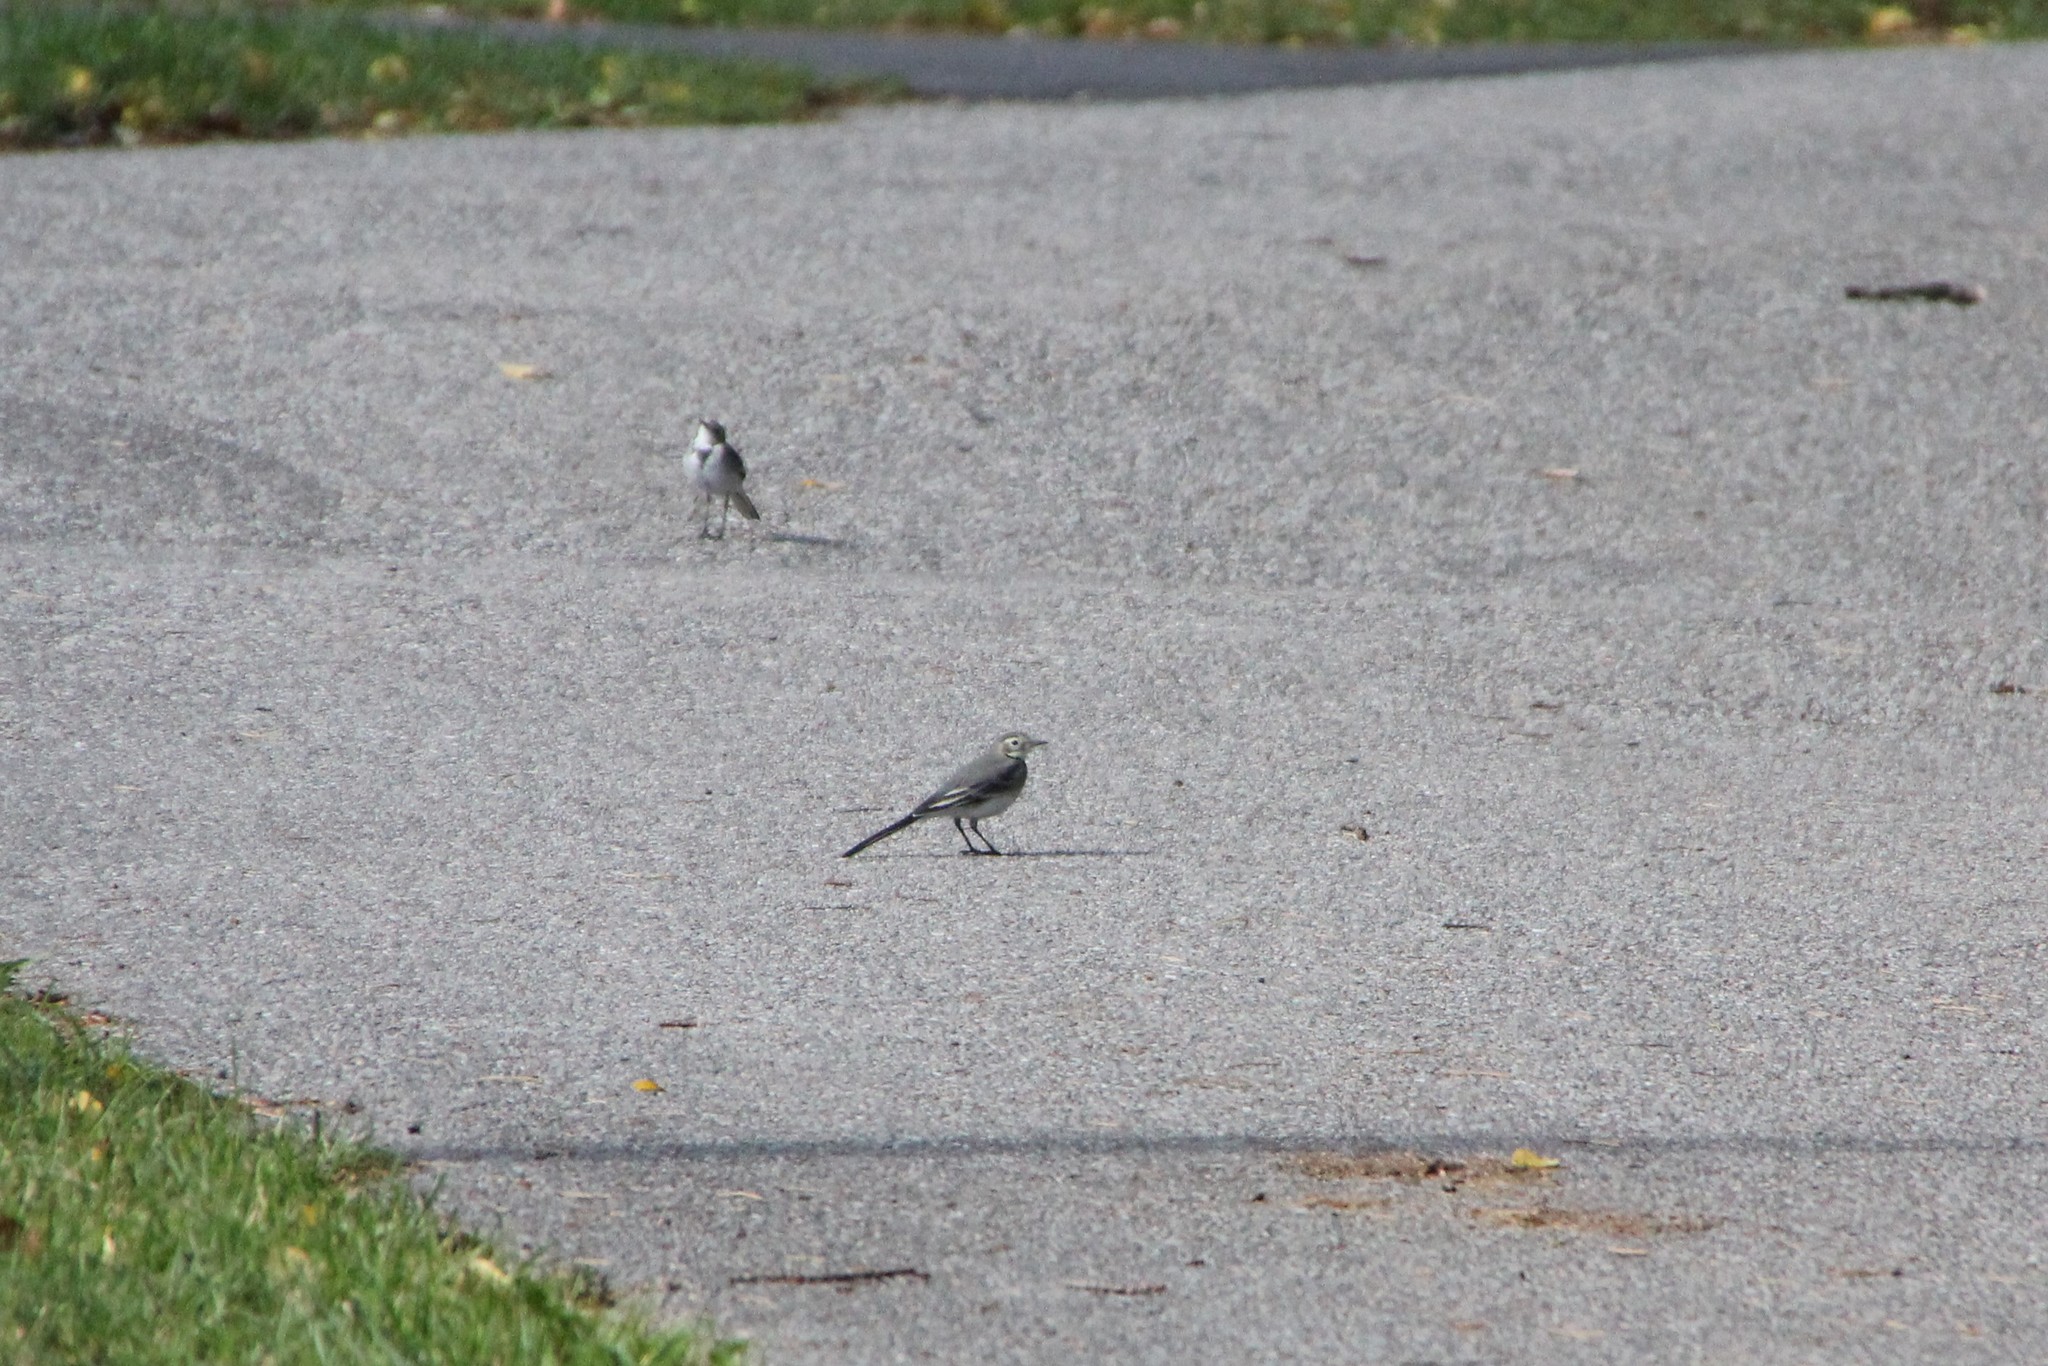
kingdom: Animalia
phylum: Chordata
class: Aves
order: Passeriformes
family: Motacillidae
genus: Motacilla
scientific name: Motacilla alba
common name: White wagtail
